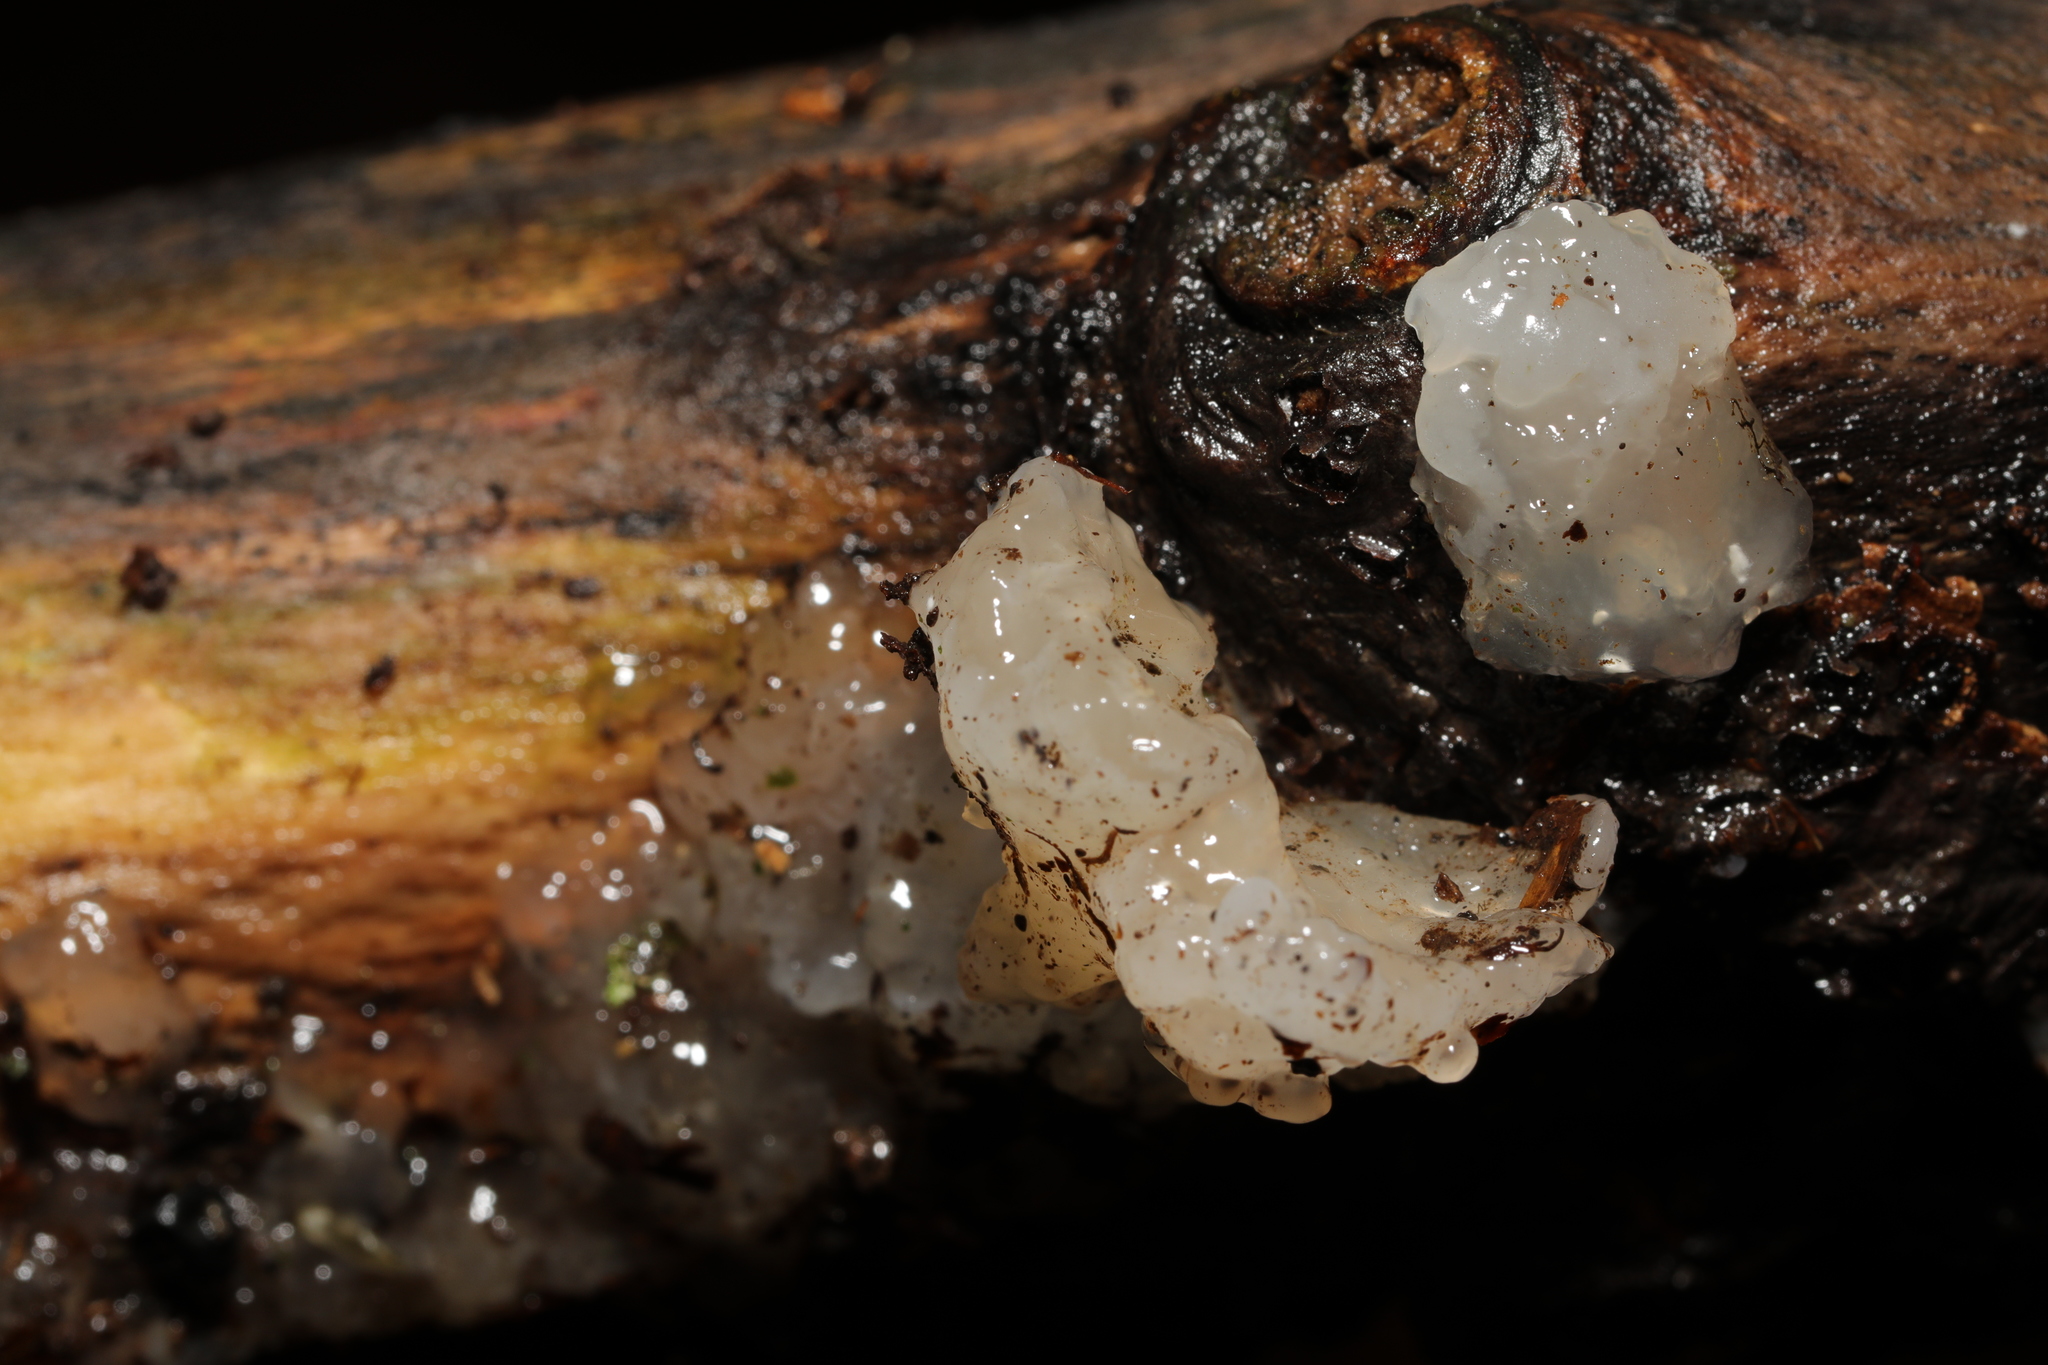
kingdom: Fungi
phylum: Basidiomycota
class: Agaricomycetes
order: Auriculariales
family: Hyaloriaceae
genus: Myxarium
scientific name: Myxarium nucleatum
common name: Crystal brain fungus
